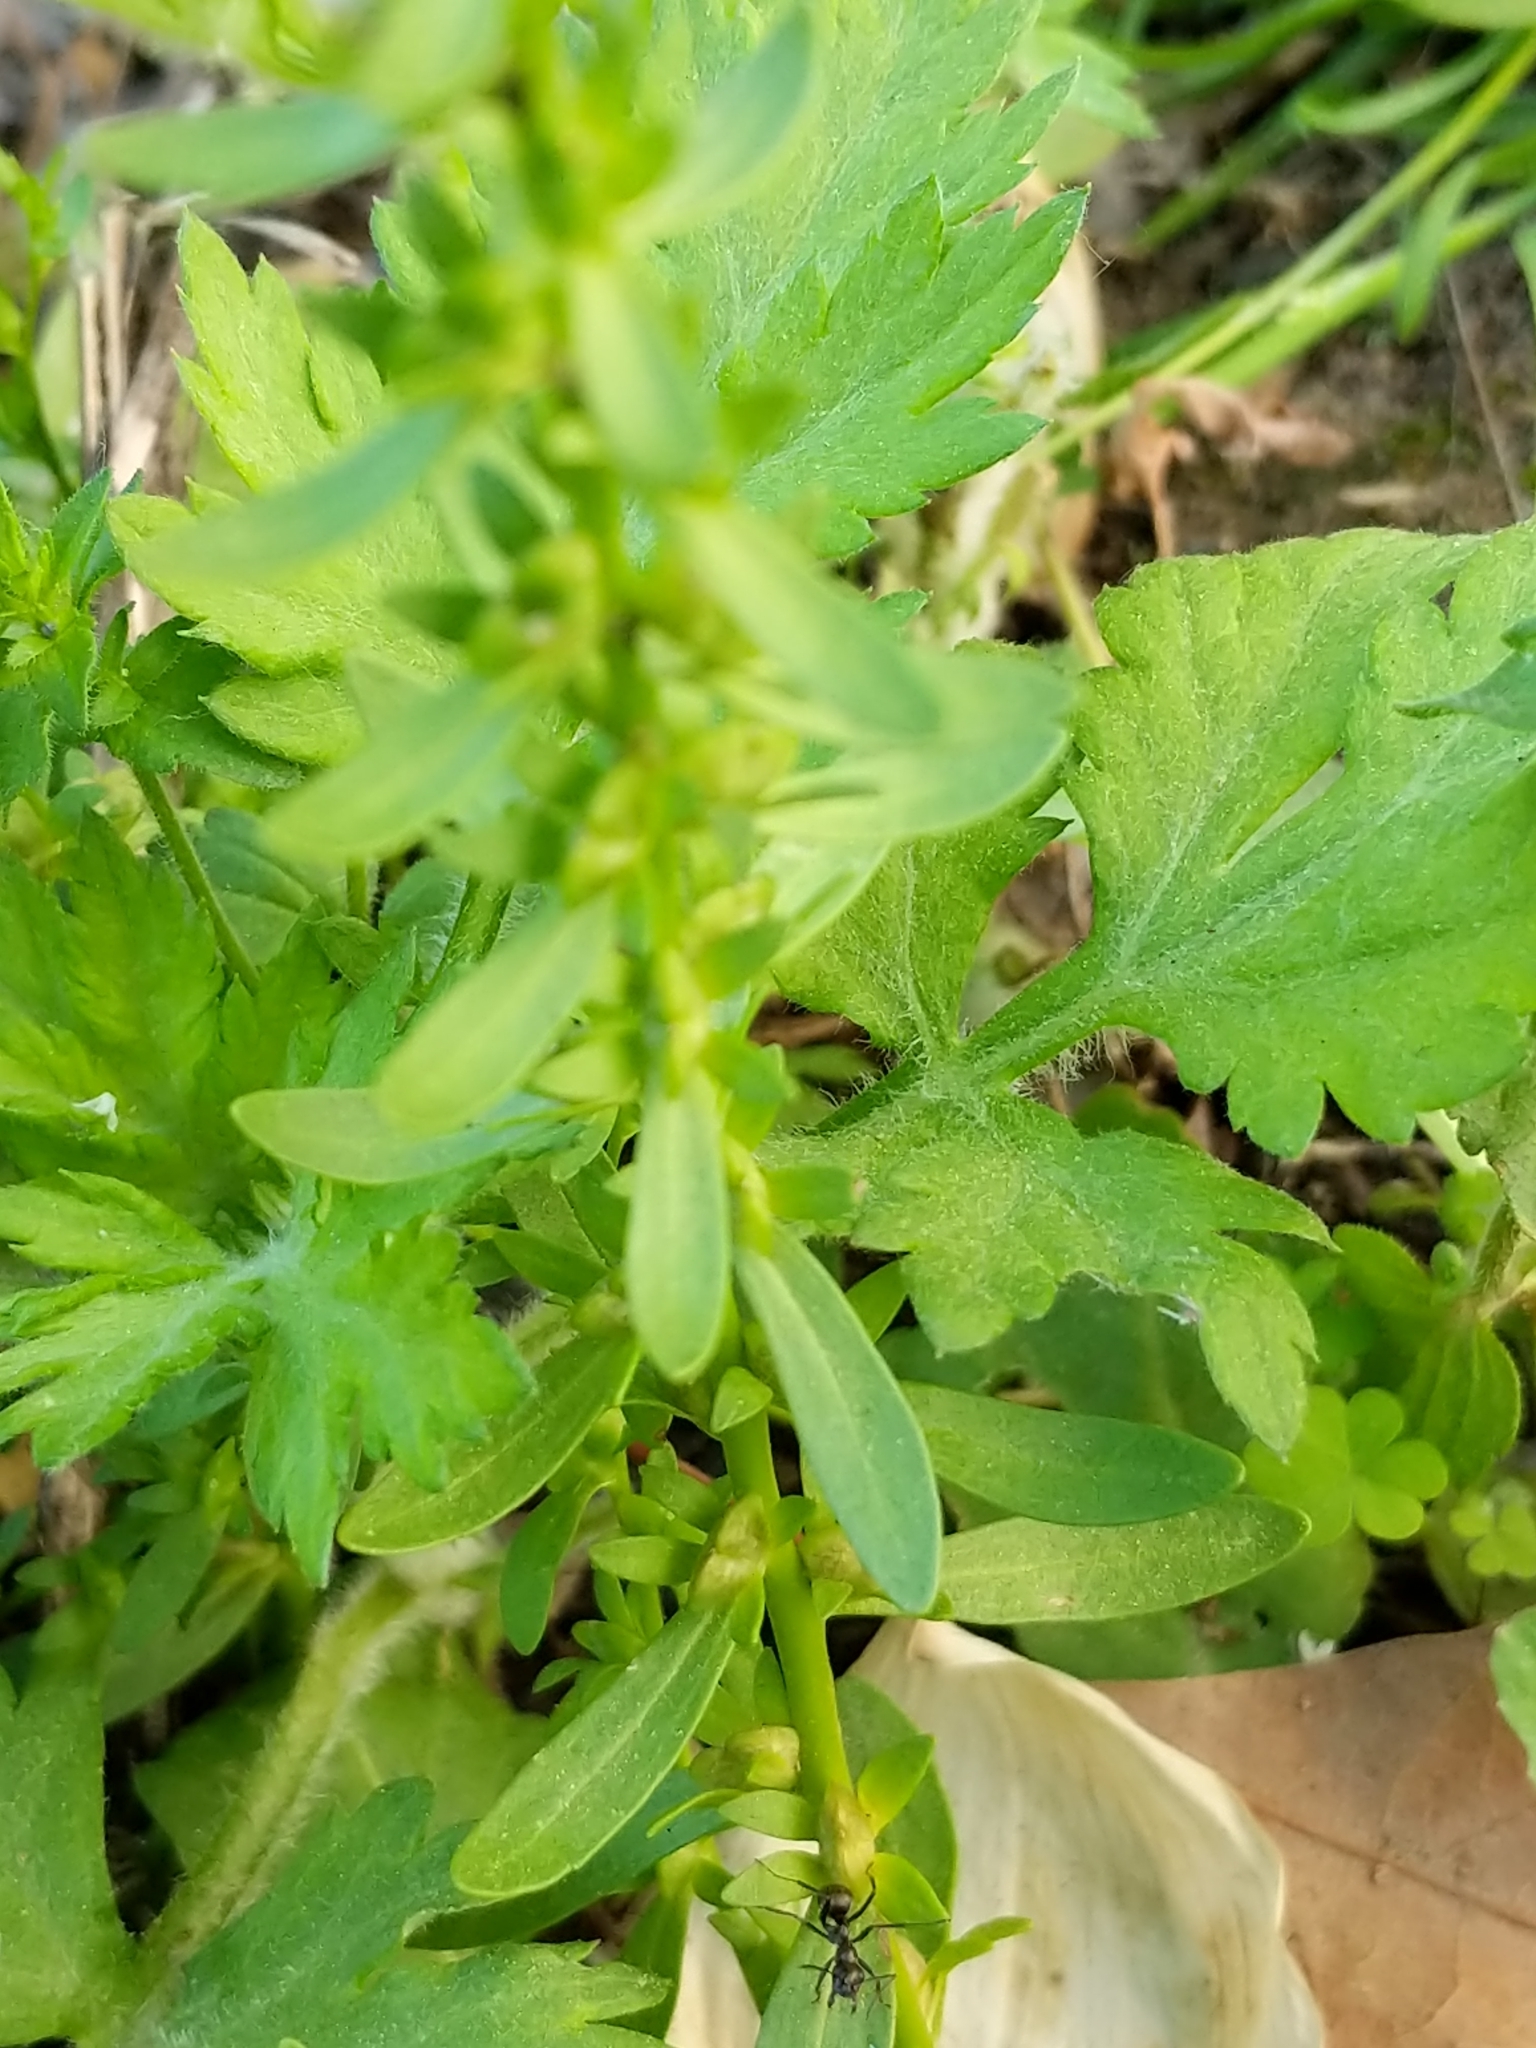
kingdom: Plantae
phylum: Tracheophyta
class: Magnoliopsida
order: Lamiales
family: Plantaginaceae
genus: Veronica
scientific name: Veronica peregrina
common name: Neckweed
